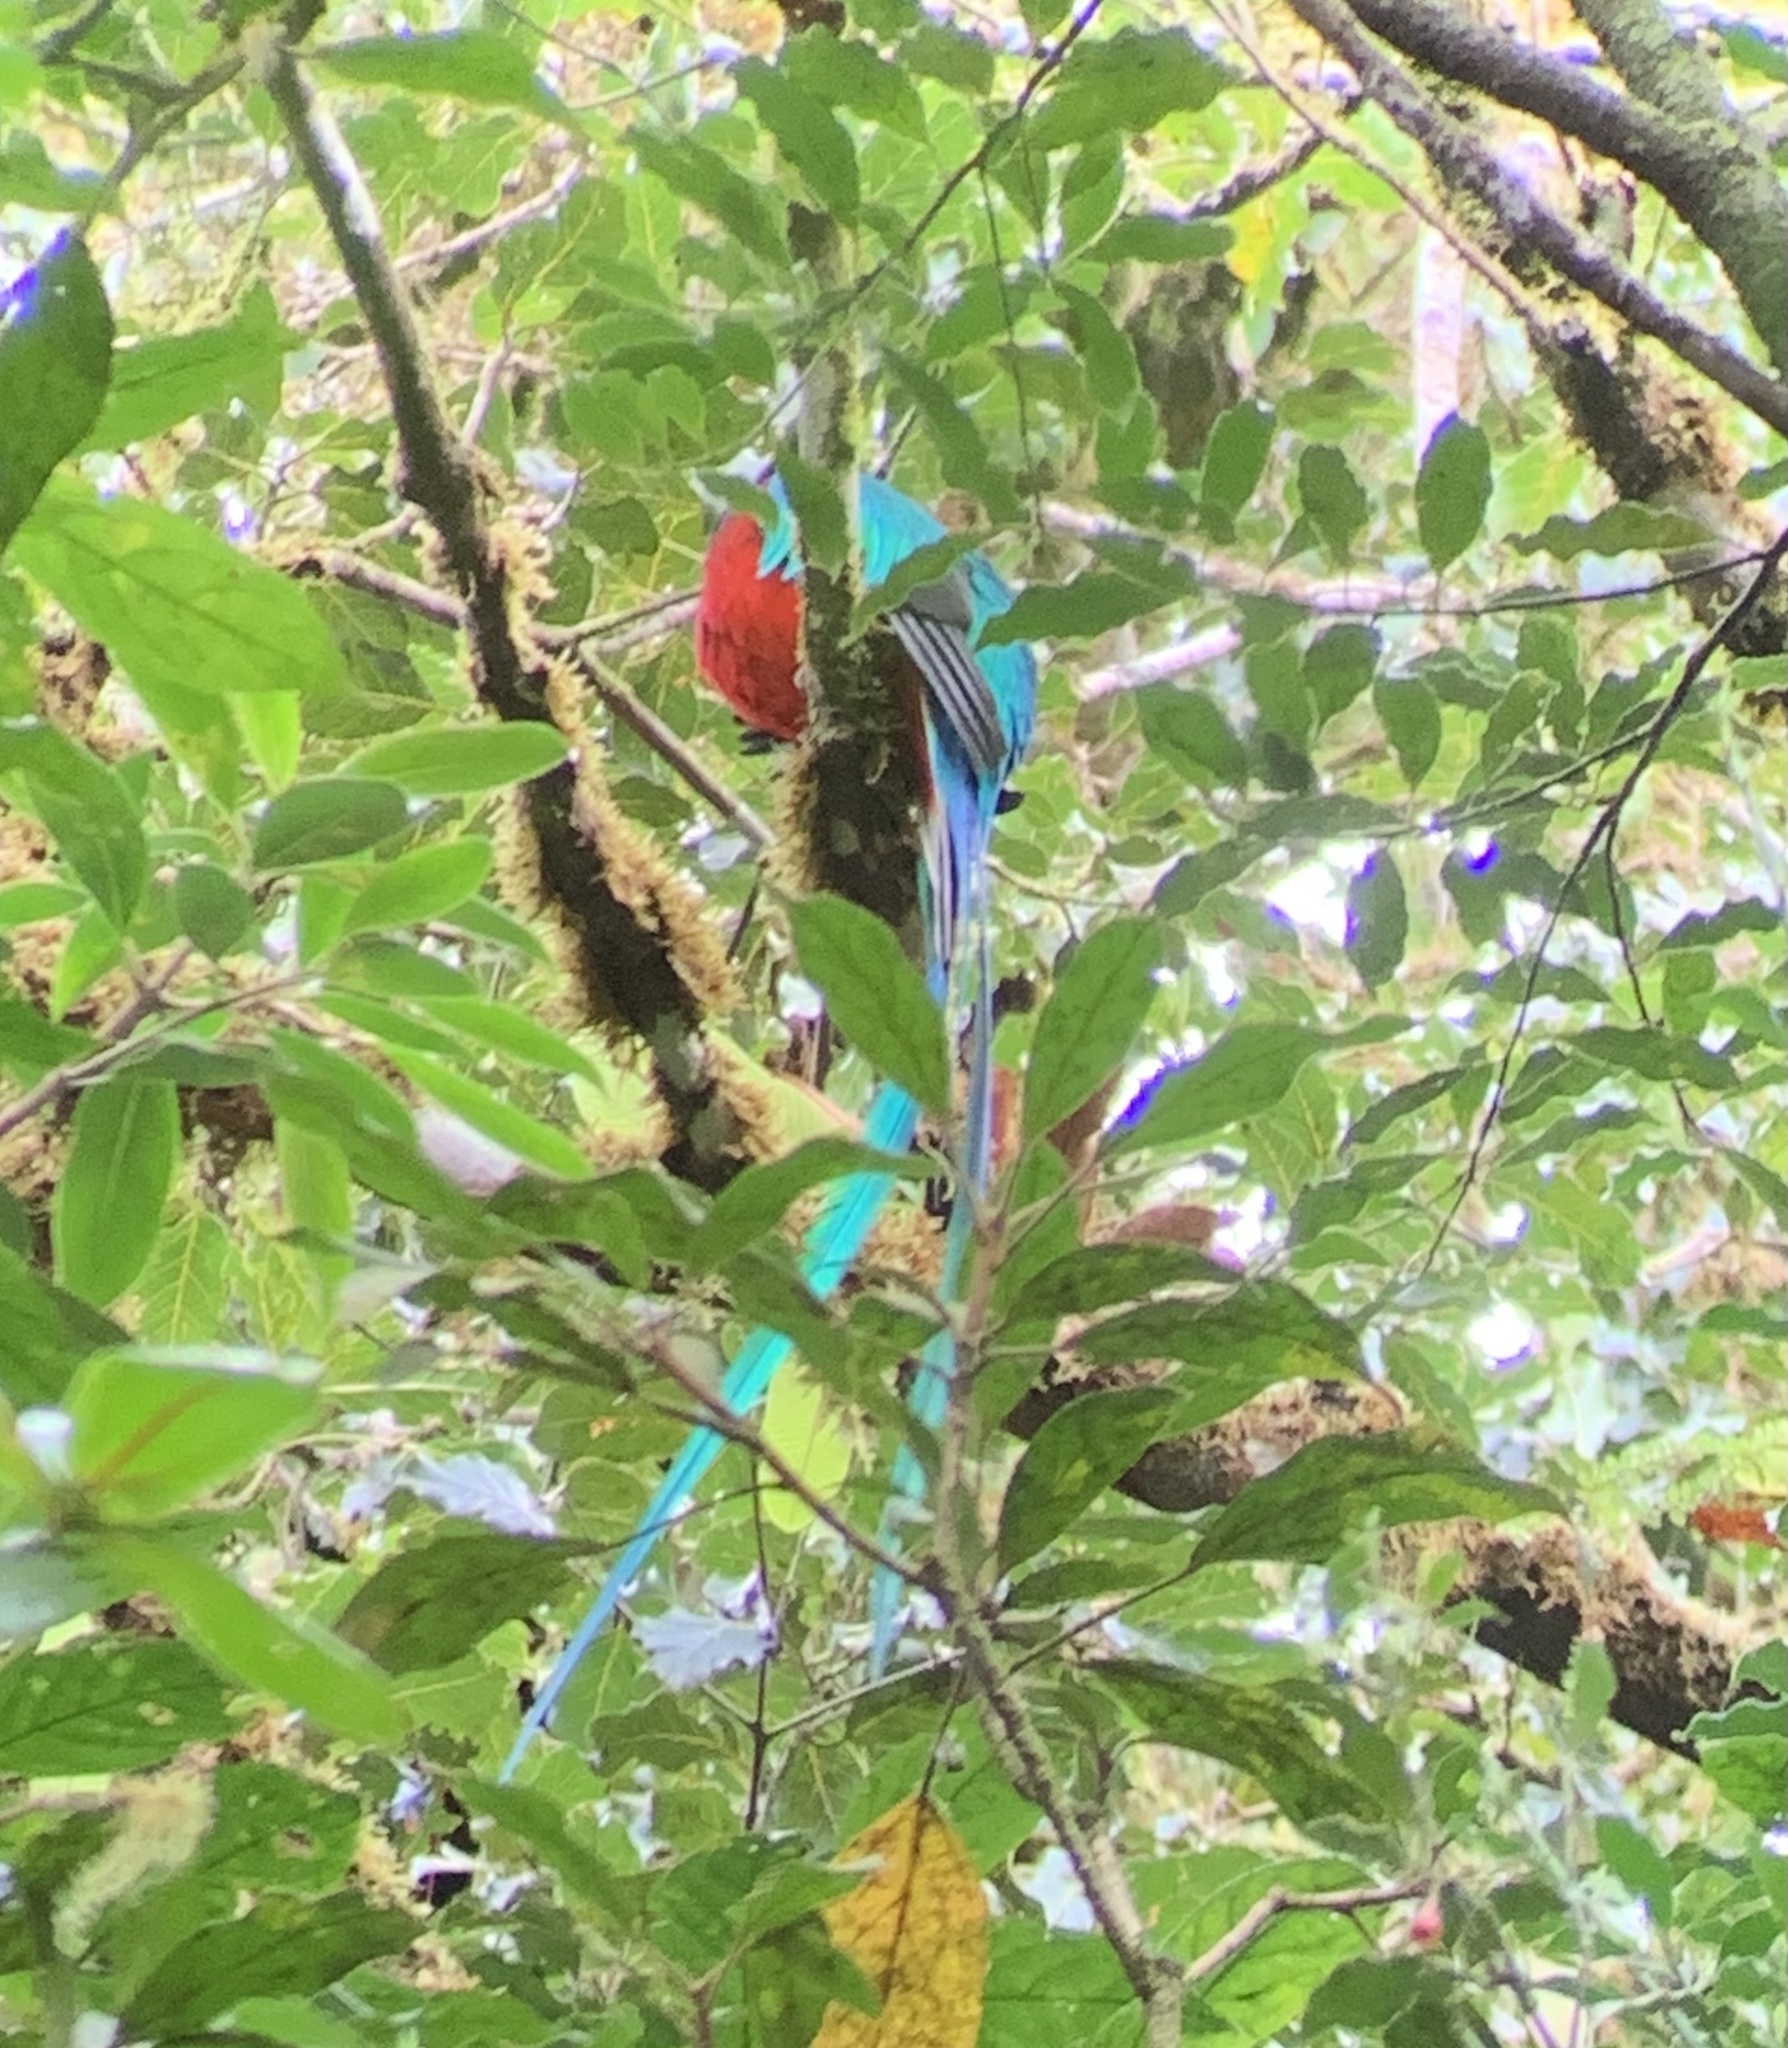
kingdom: Animalia
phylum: Chordata
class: Aves
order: Trogoniformes
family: Trogonidae
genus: Pharomachrus
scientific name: Pharomachrus mocinno
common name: Resplendent quetzal
